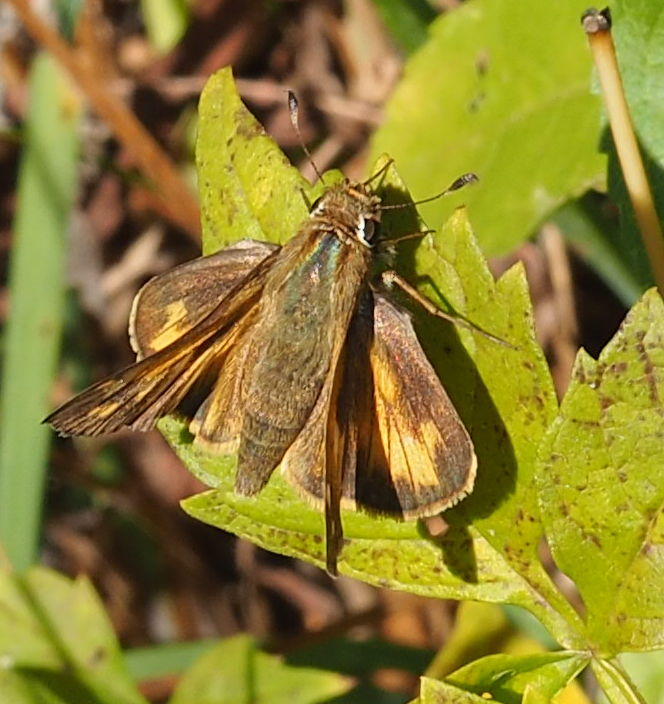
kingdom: Animalia
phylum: Arthropoda
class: Insecta
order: Lepidoptera
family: Hesperiidae
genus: Atalopedes
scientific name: Atalopedes
